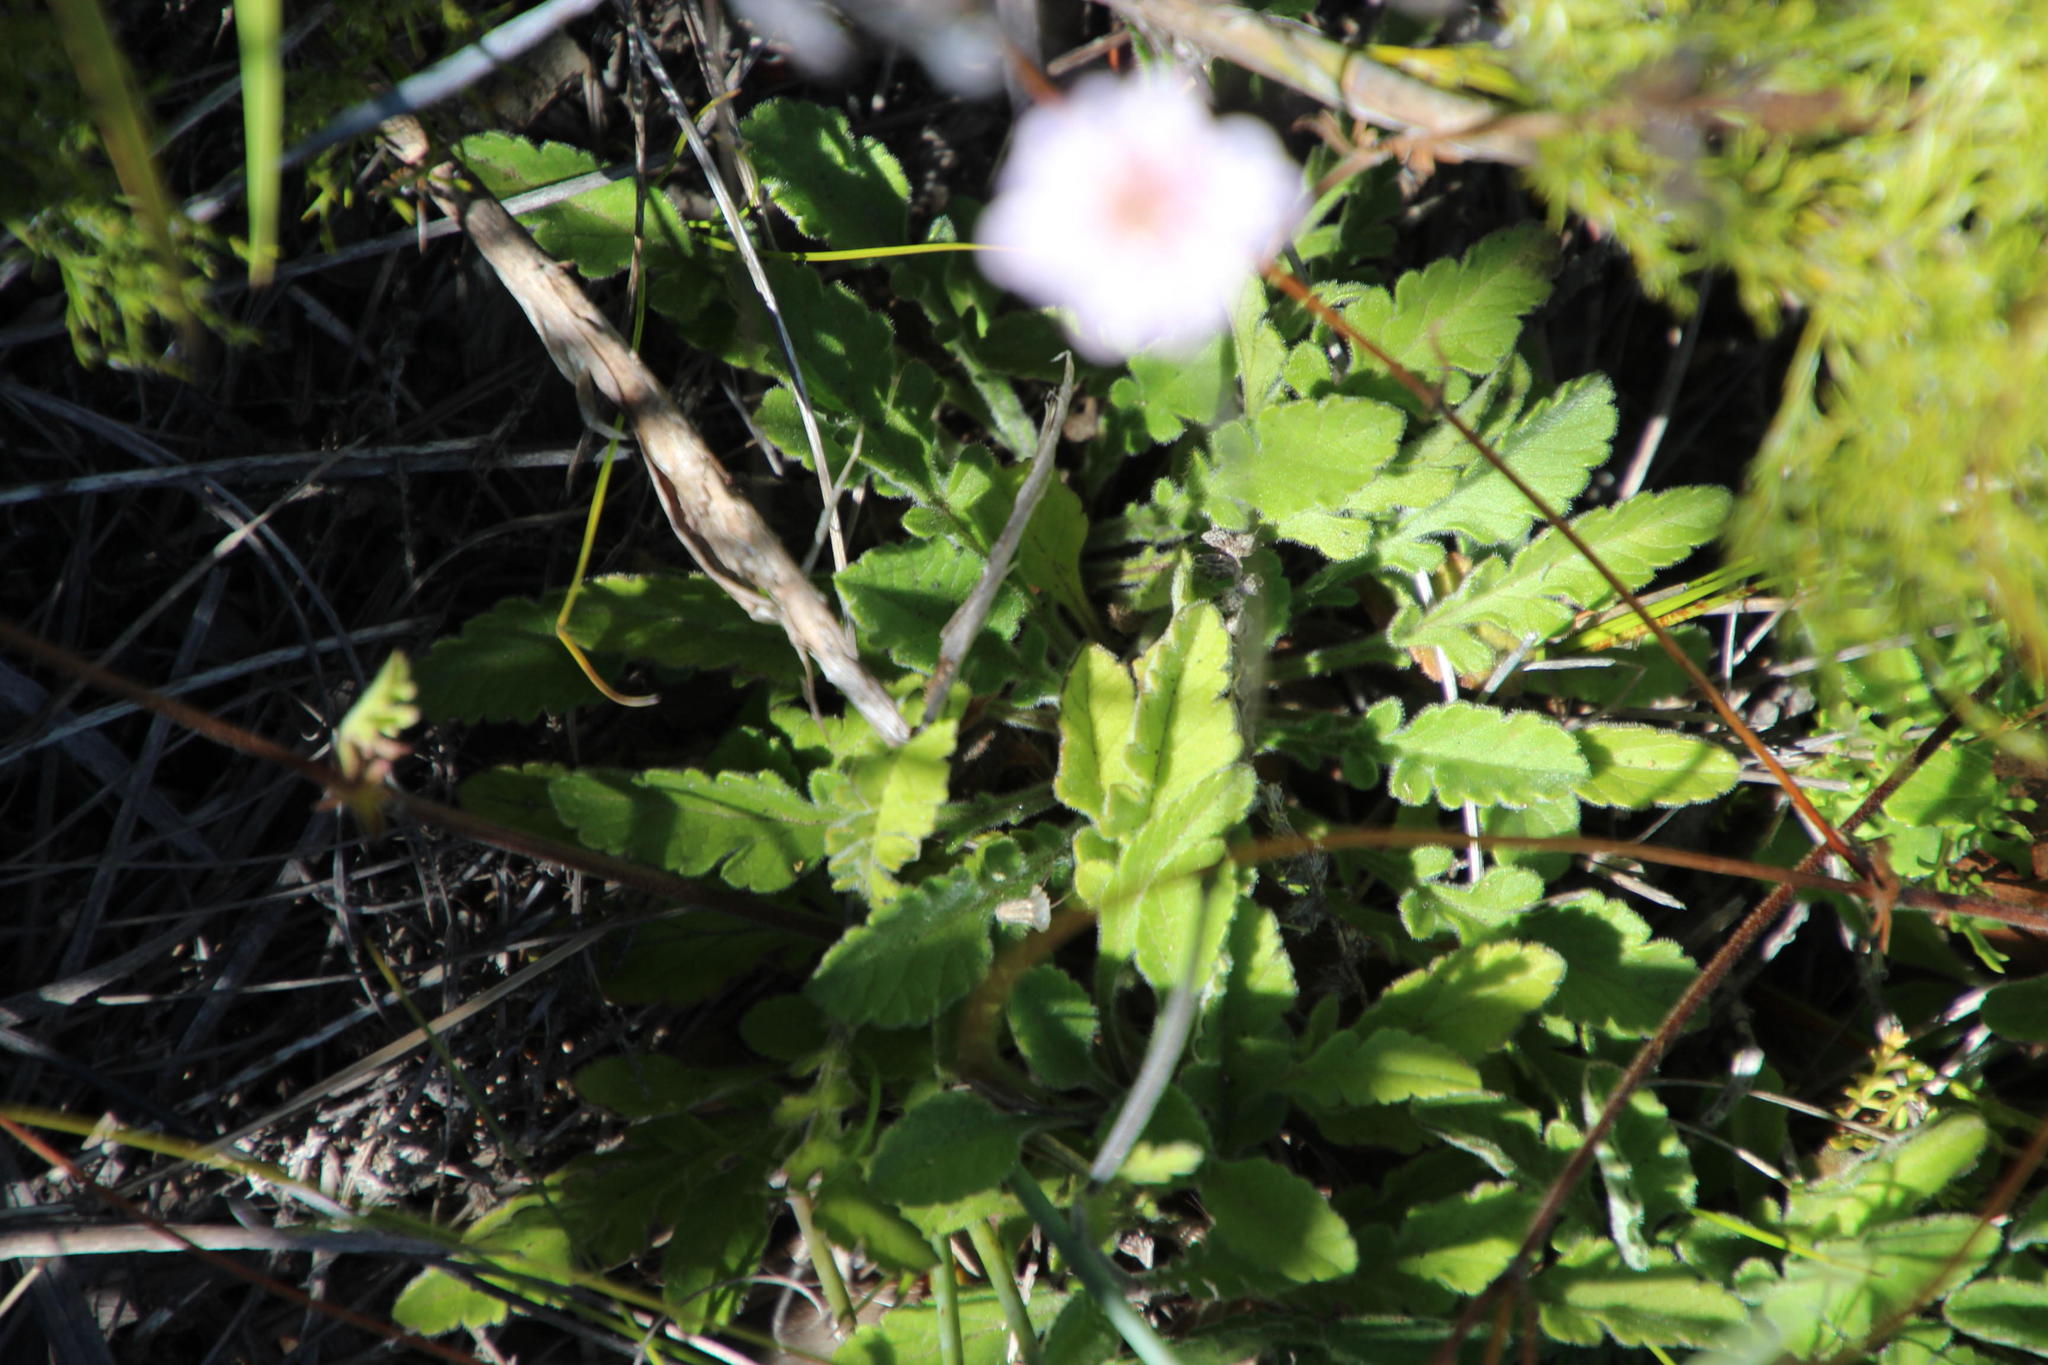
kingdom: Plantae
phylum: Tracheophyta
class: Magnoliopsida
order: Dipsacales
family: Caprifoliaceae
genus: Scabiosa
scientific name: Scabiosa columbaria
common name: Small scabious
